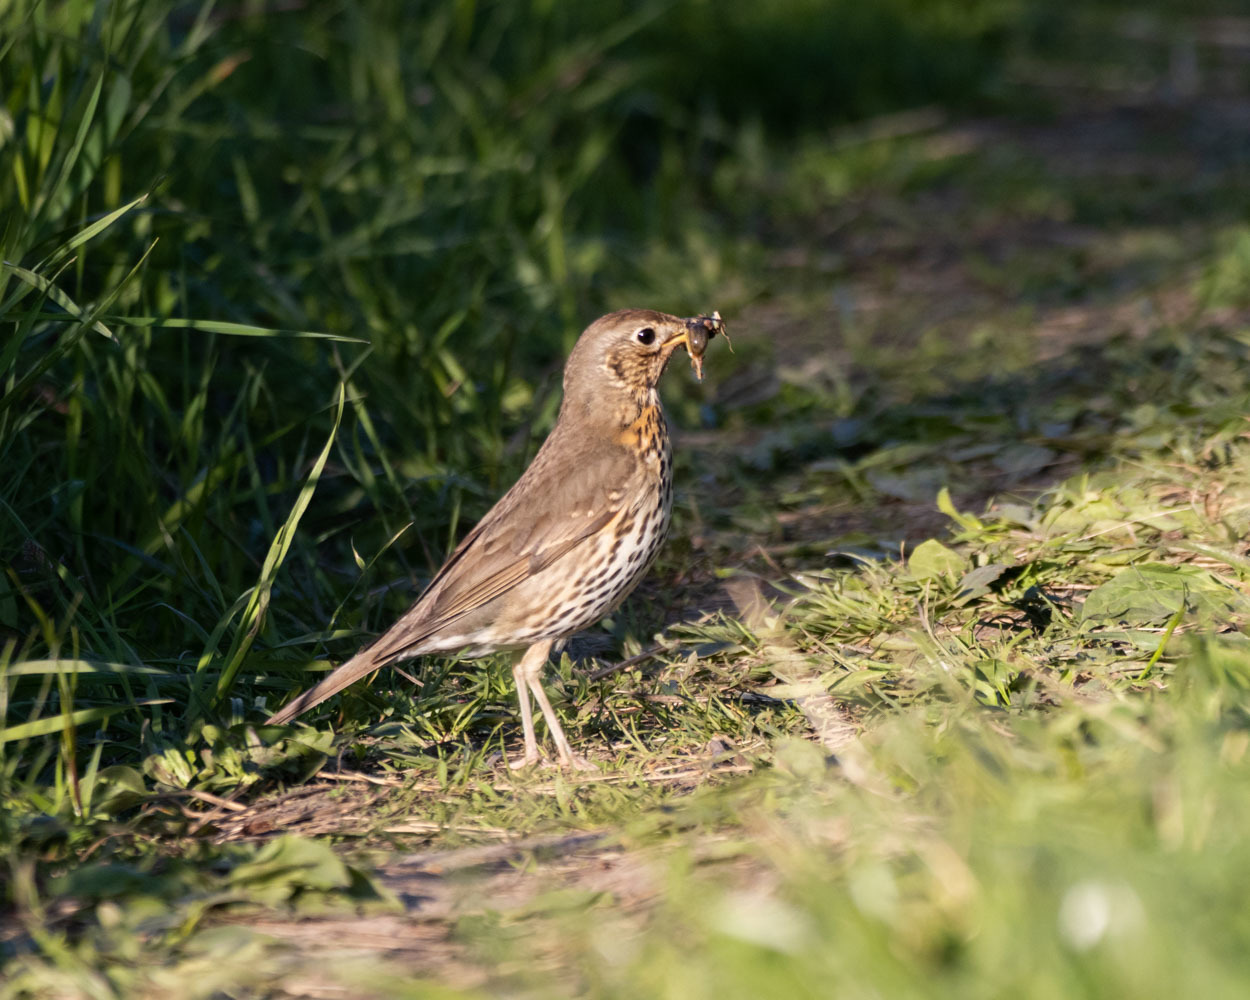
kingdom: Animalia
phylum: Chordata
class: Aves
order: Passeriformes
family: Turdidae
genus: Turdus
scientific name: Turdus philomelos
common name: Song thrush
